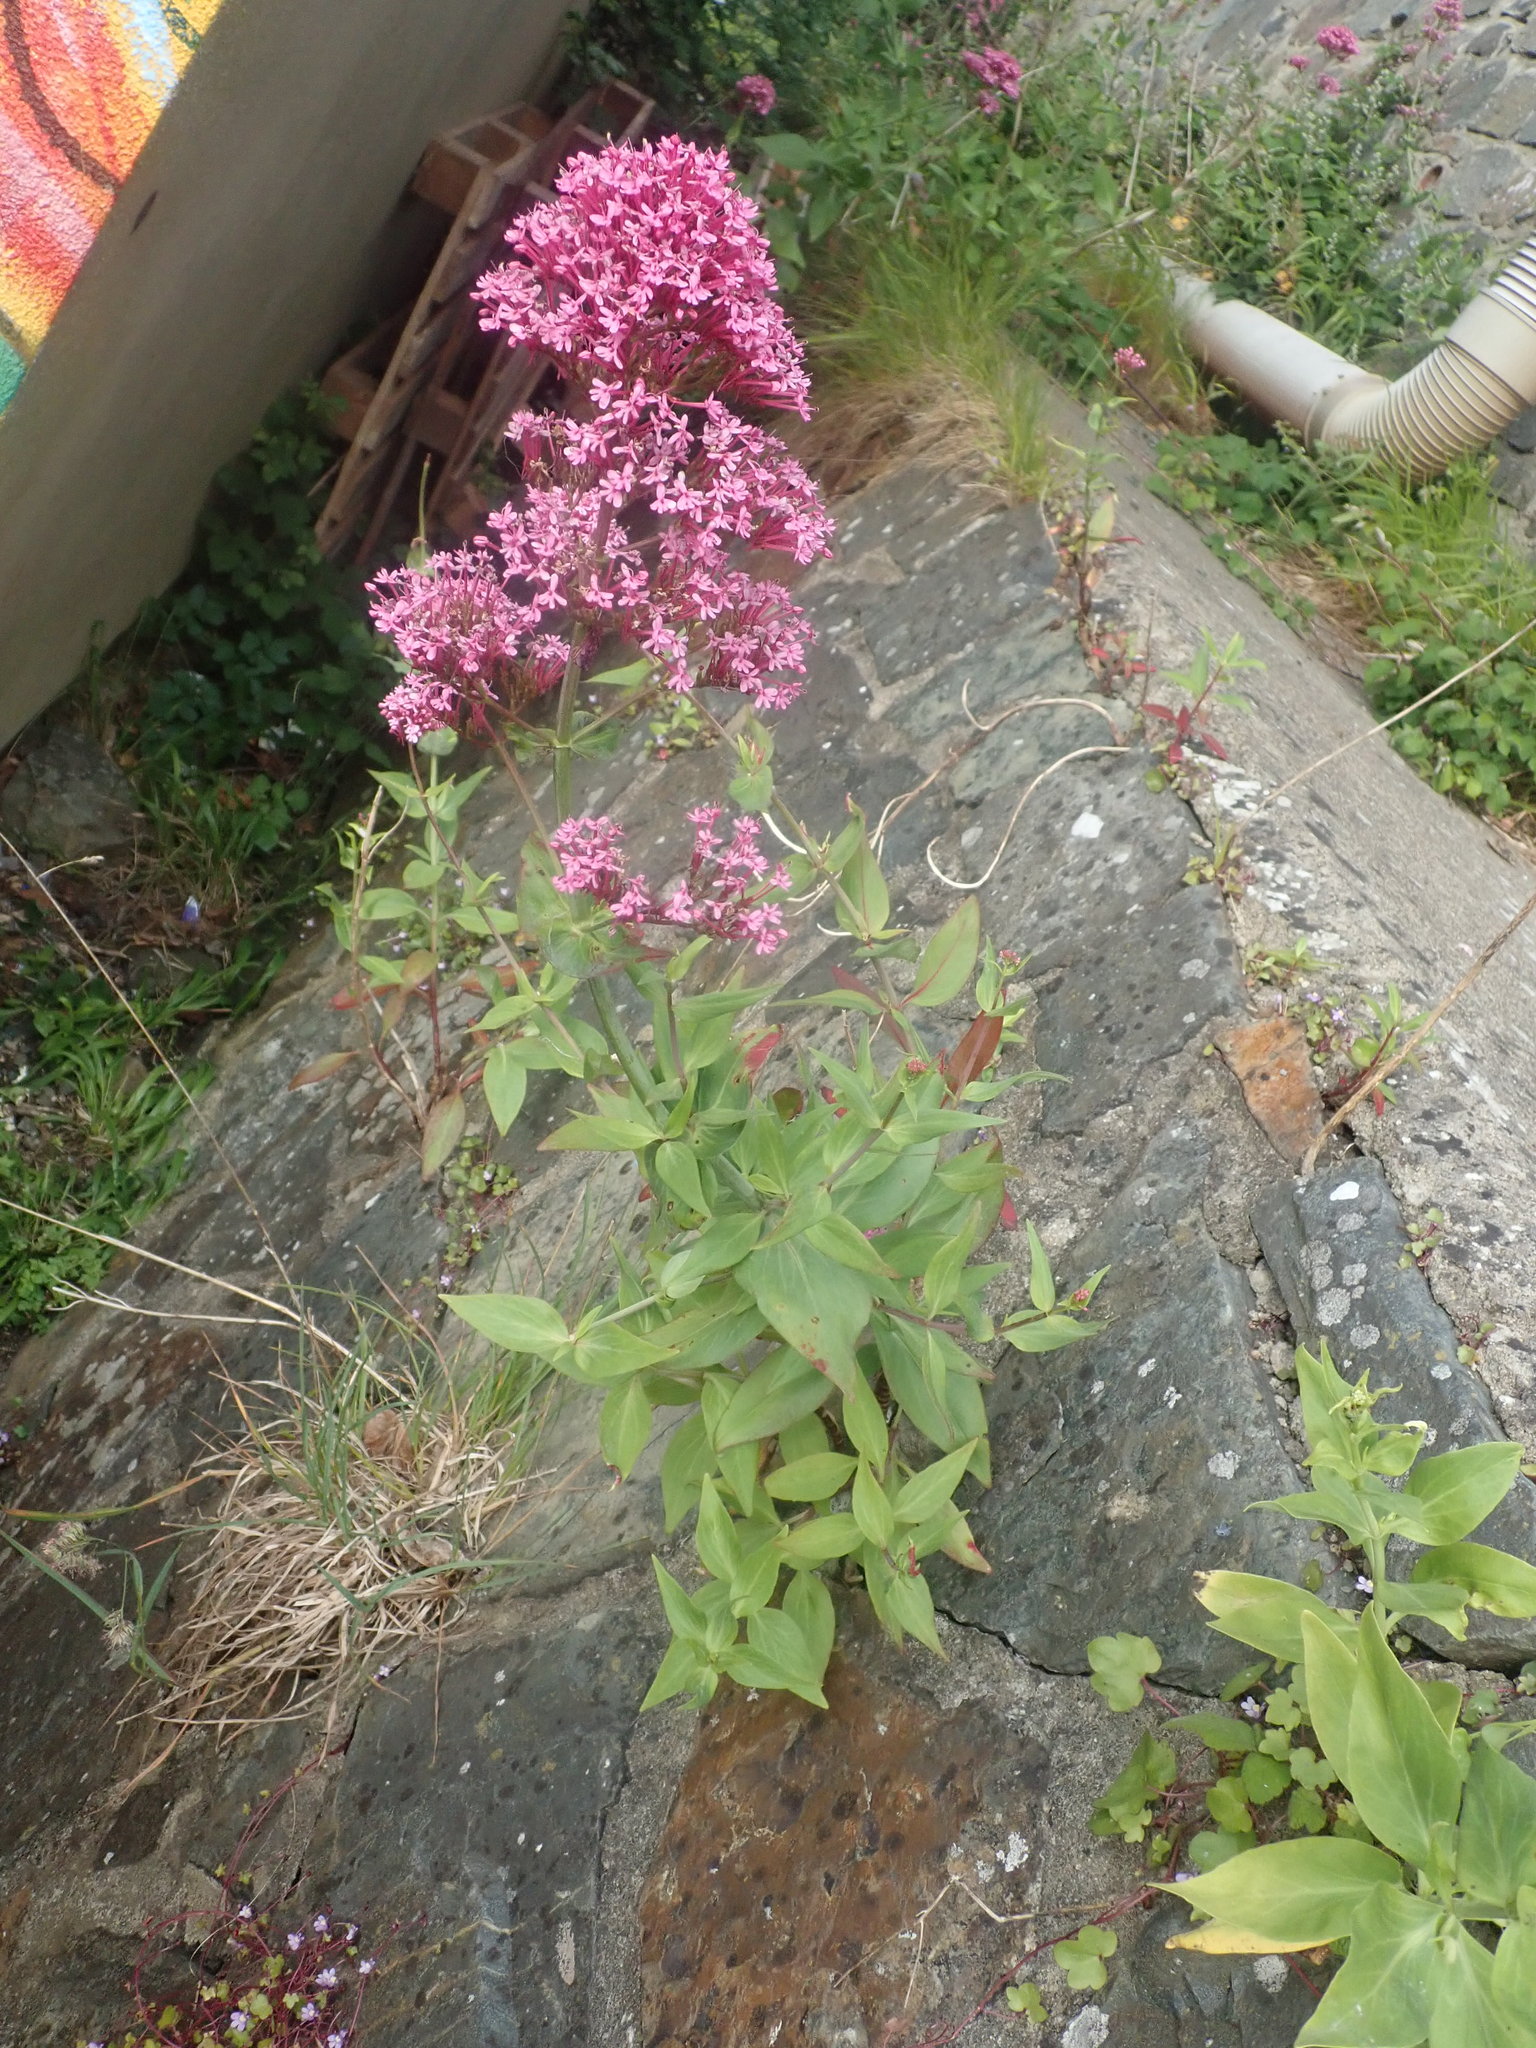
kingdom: Plantae
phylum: Tracheophyta
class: Magnoliopsida
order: Dipsacales
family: Caprifoliaceae
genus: Centranthus
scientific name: Centranthus ruber
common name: Red valerian
